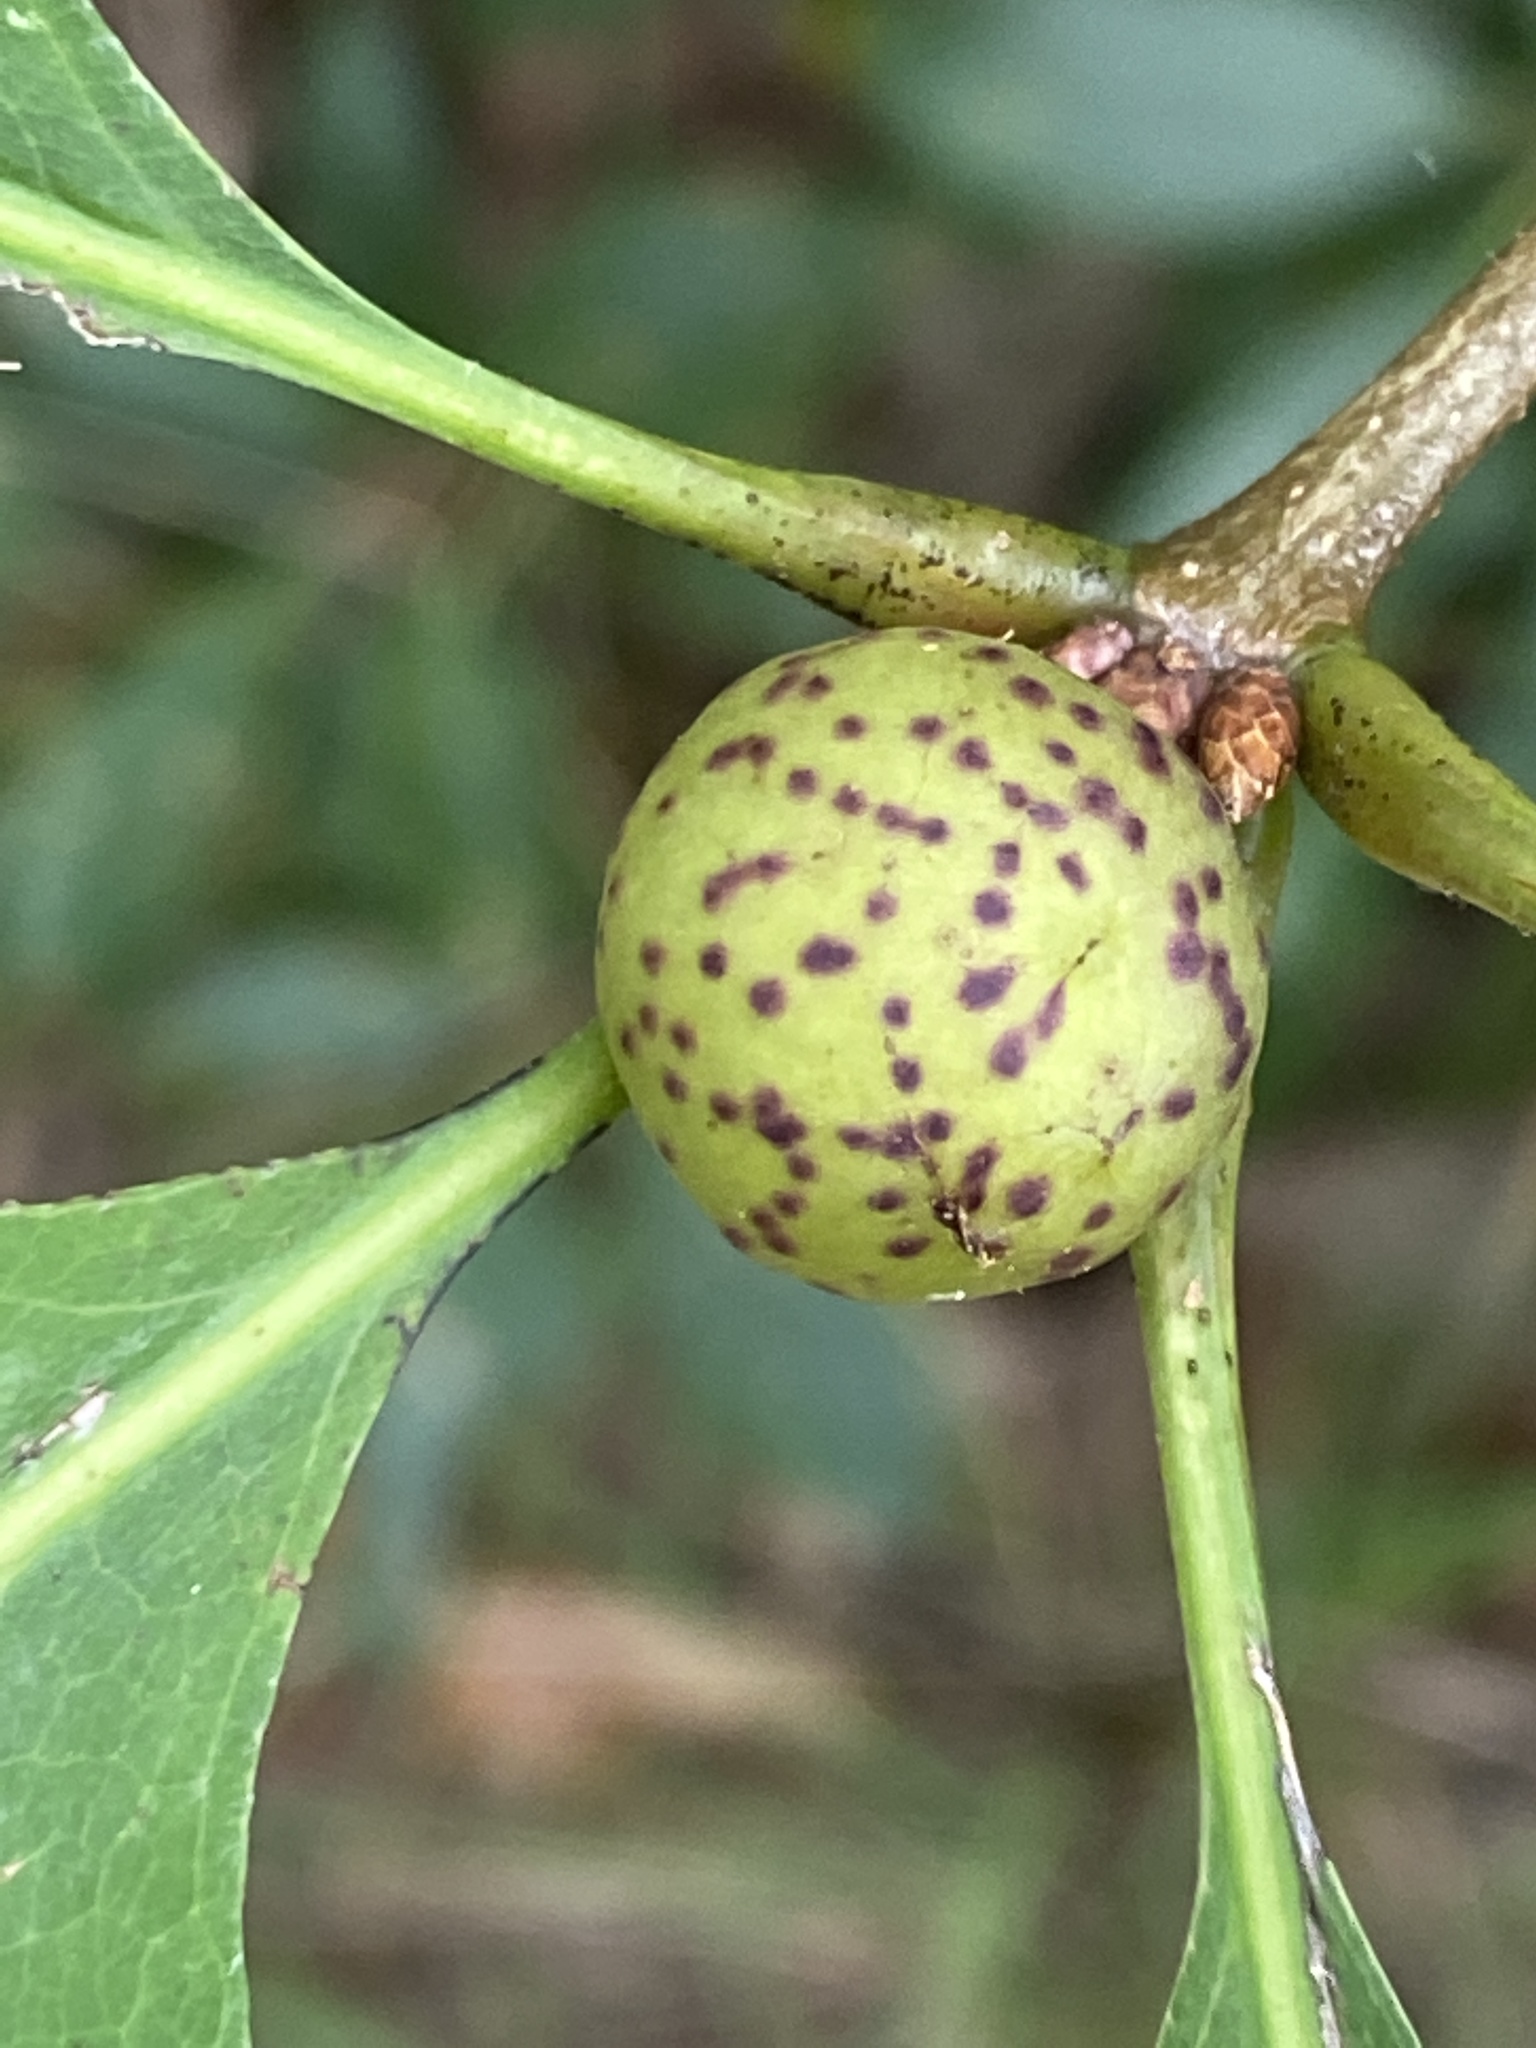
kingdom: Animalia
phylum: Arthropoda
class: Insecta
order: Hymenoptera
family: Cynipidae
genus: Amphibolips
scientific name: Amphibolips
